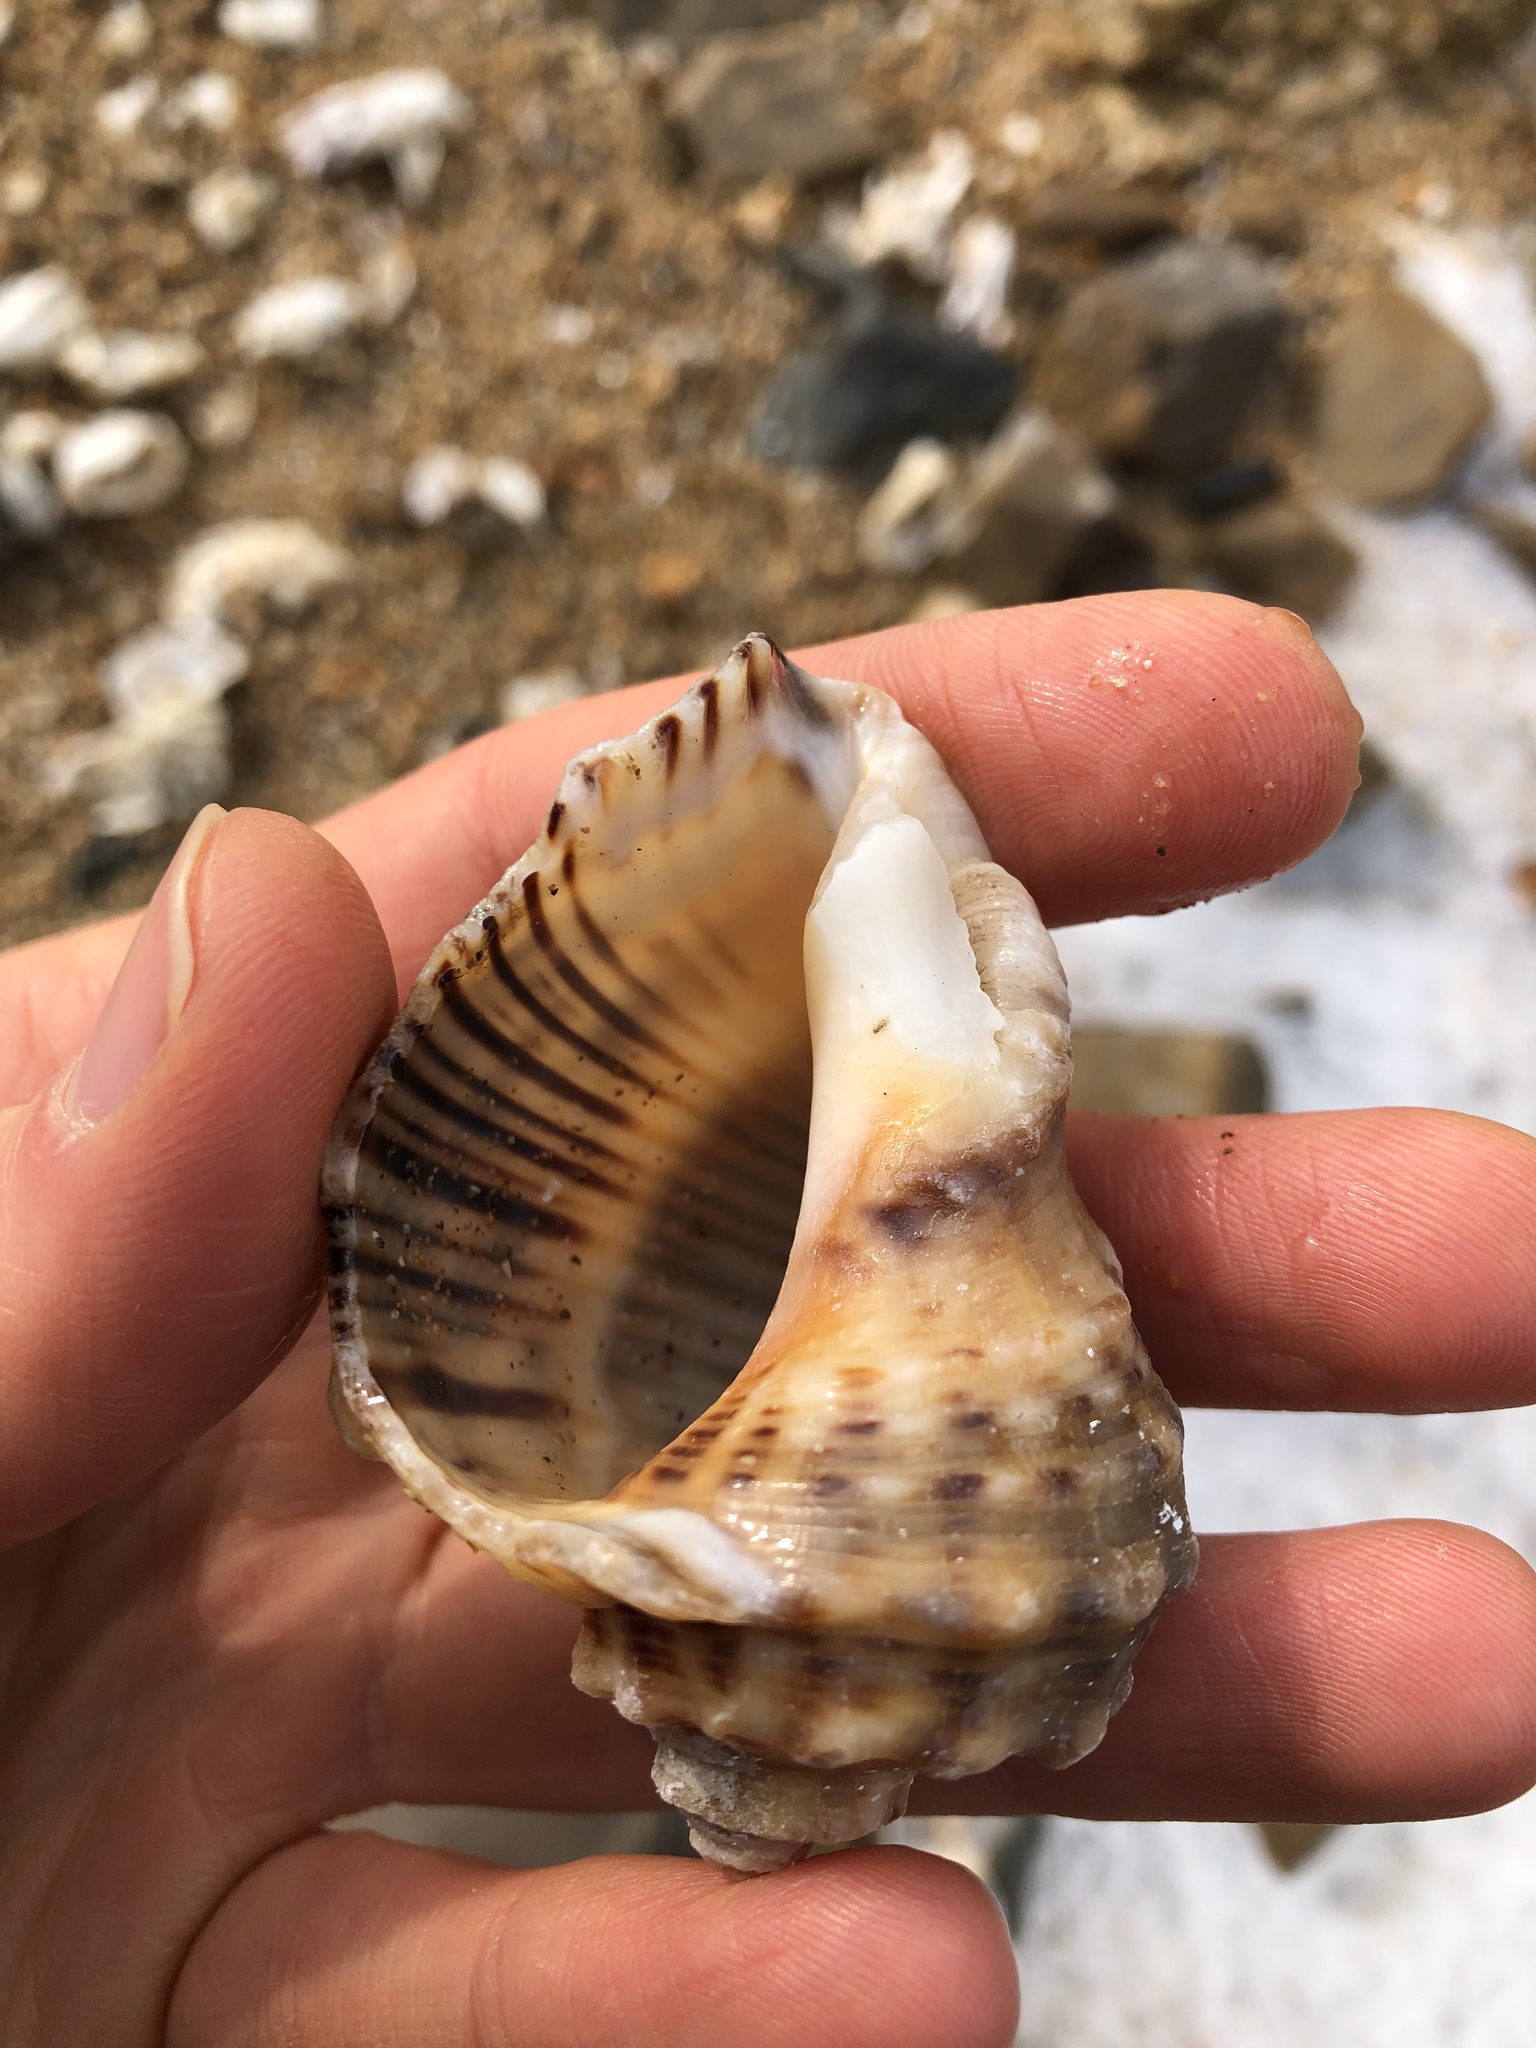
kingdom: Animalia
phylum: Mollusca
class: Gastropoda
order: Neogastropoda
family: Muricidae
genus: Rapana
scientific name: Rapana venosa
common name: Veined rapa whelk
